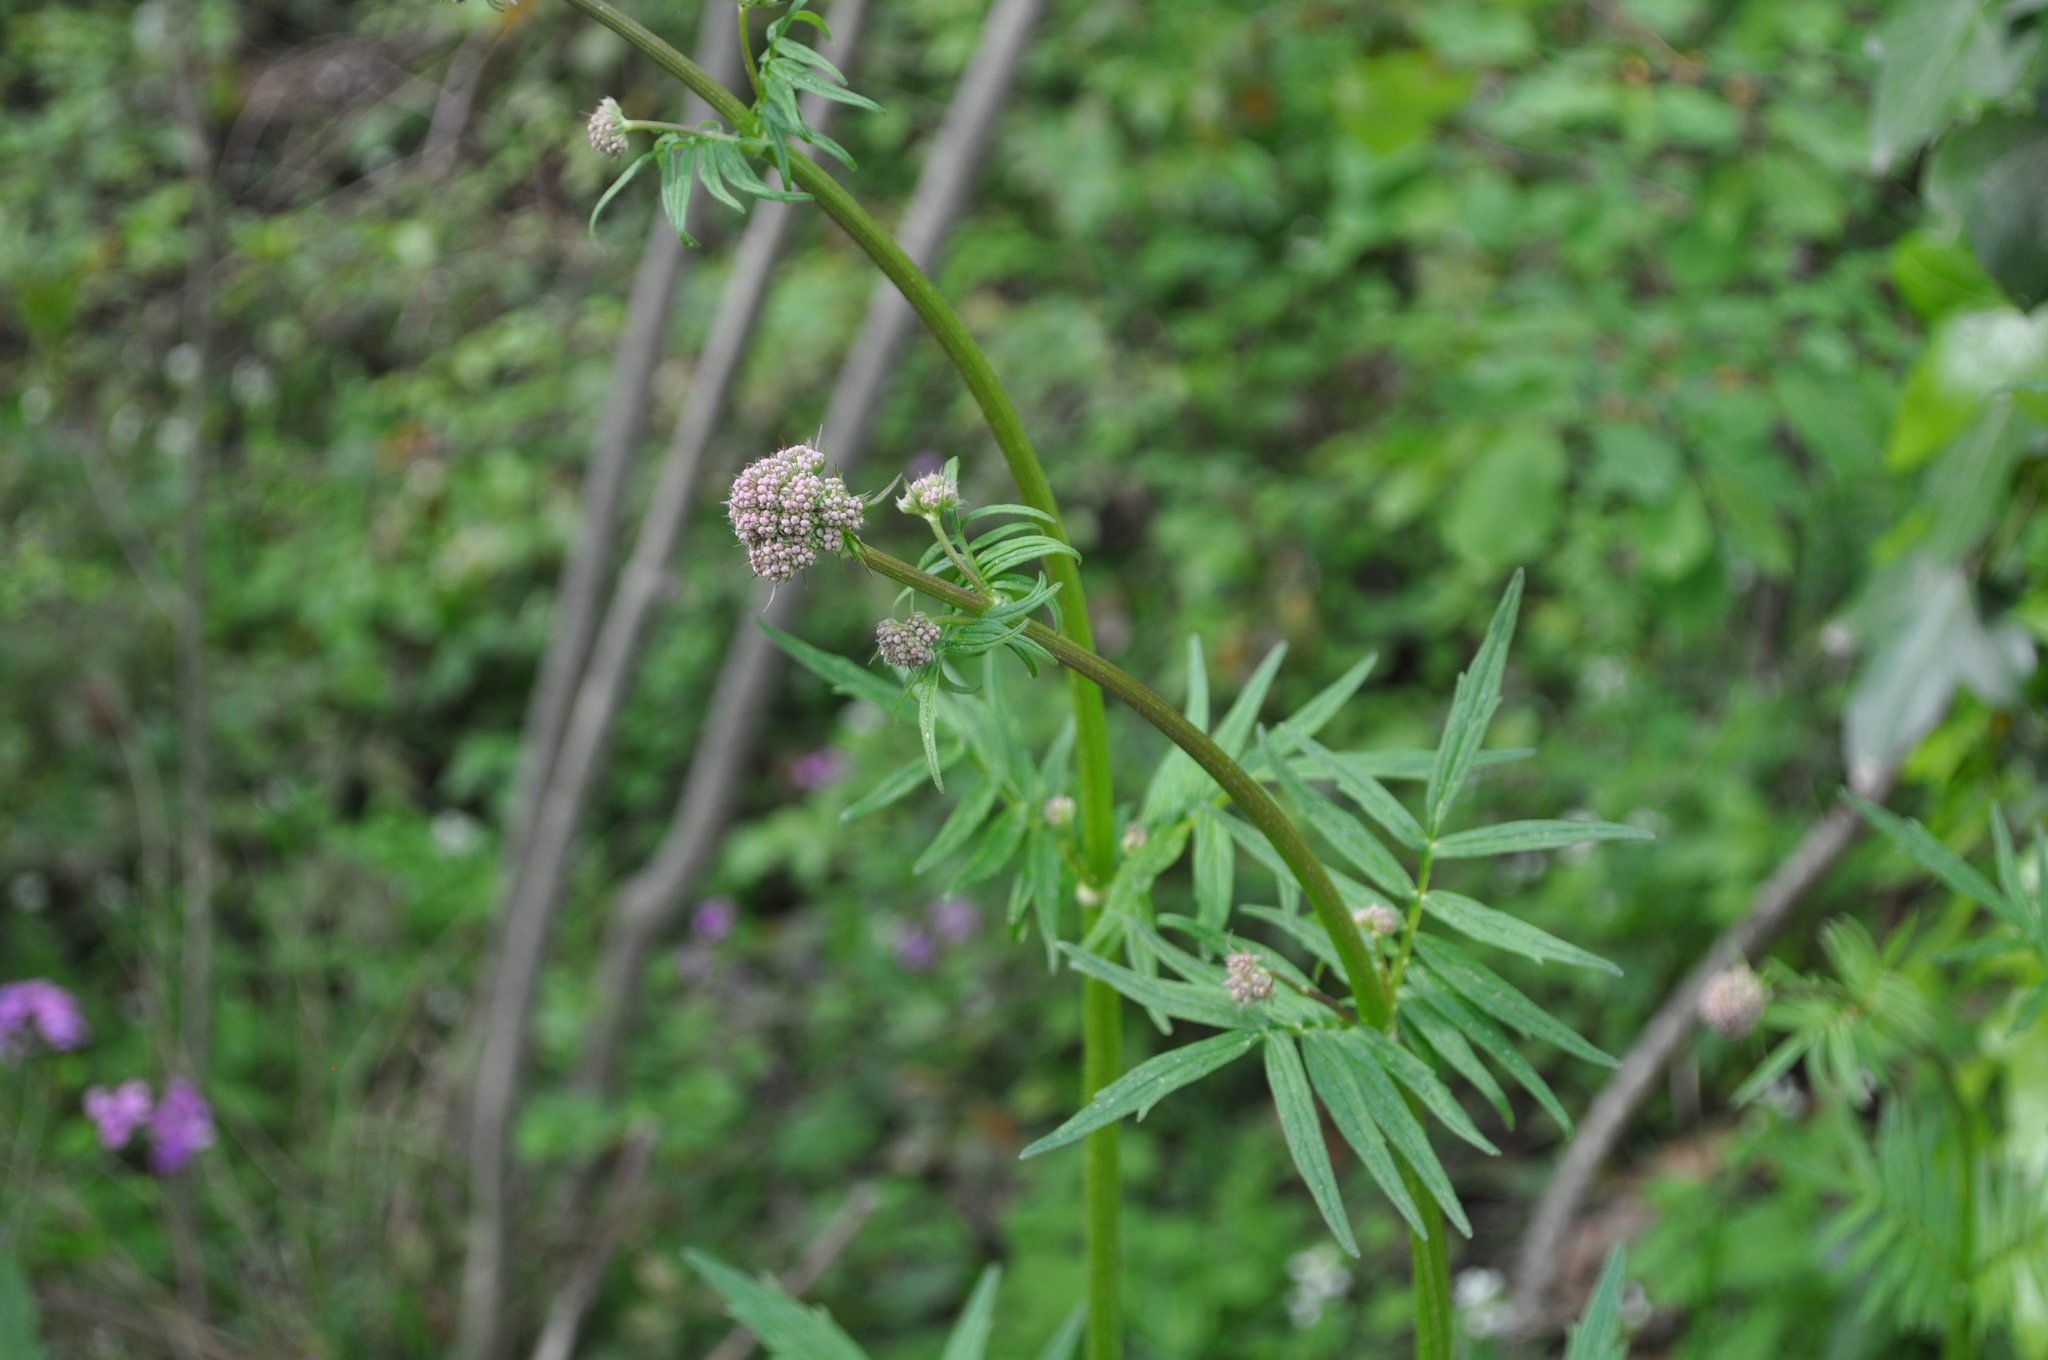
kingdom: Plantae
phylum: Tracheophyta
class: Magnoliopsida
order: Dipsacales
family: Caprifoliaceae
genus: Valeriana
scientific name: Valeriana officinalis
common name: Common valerian
